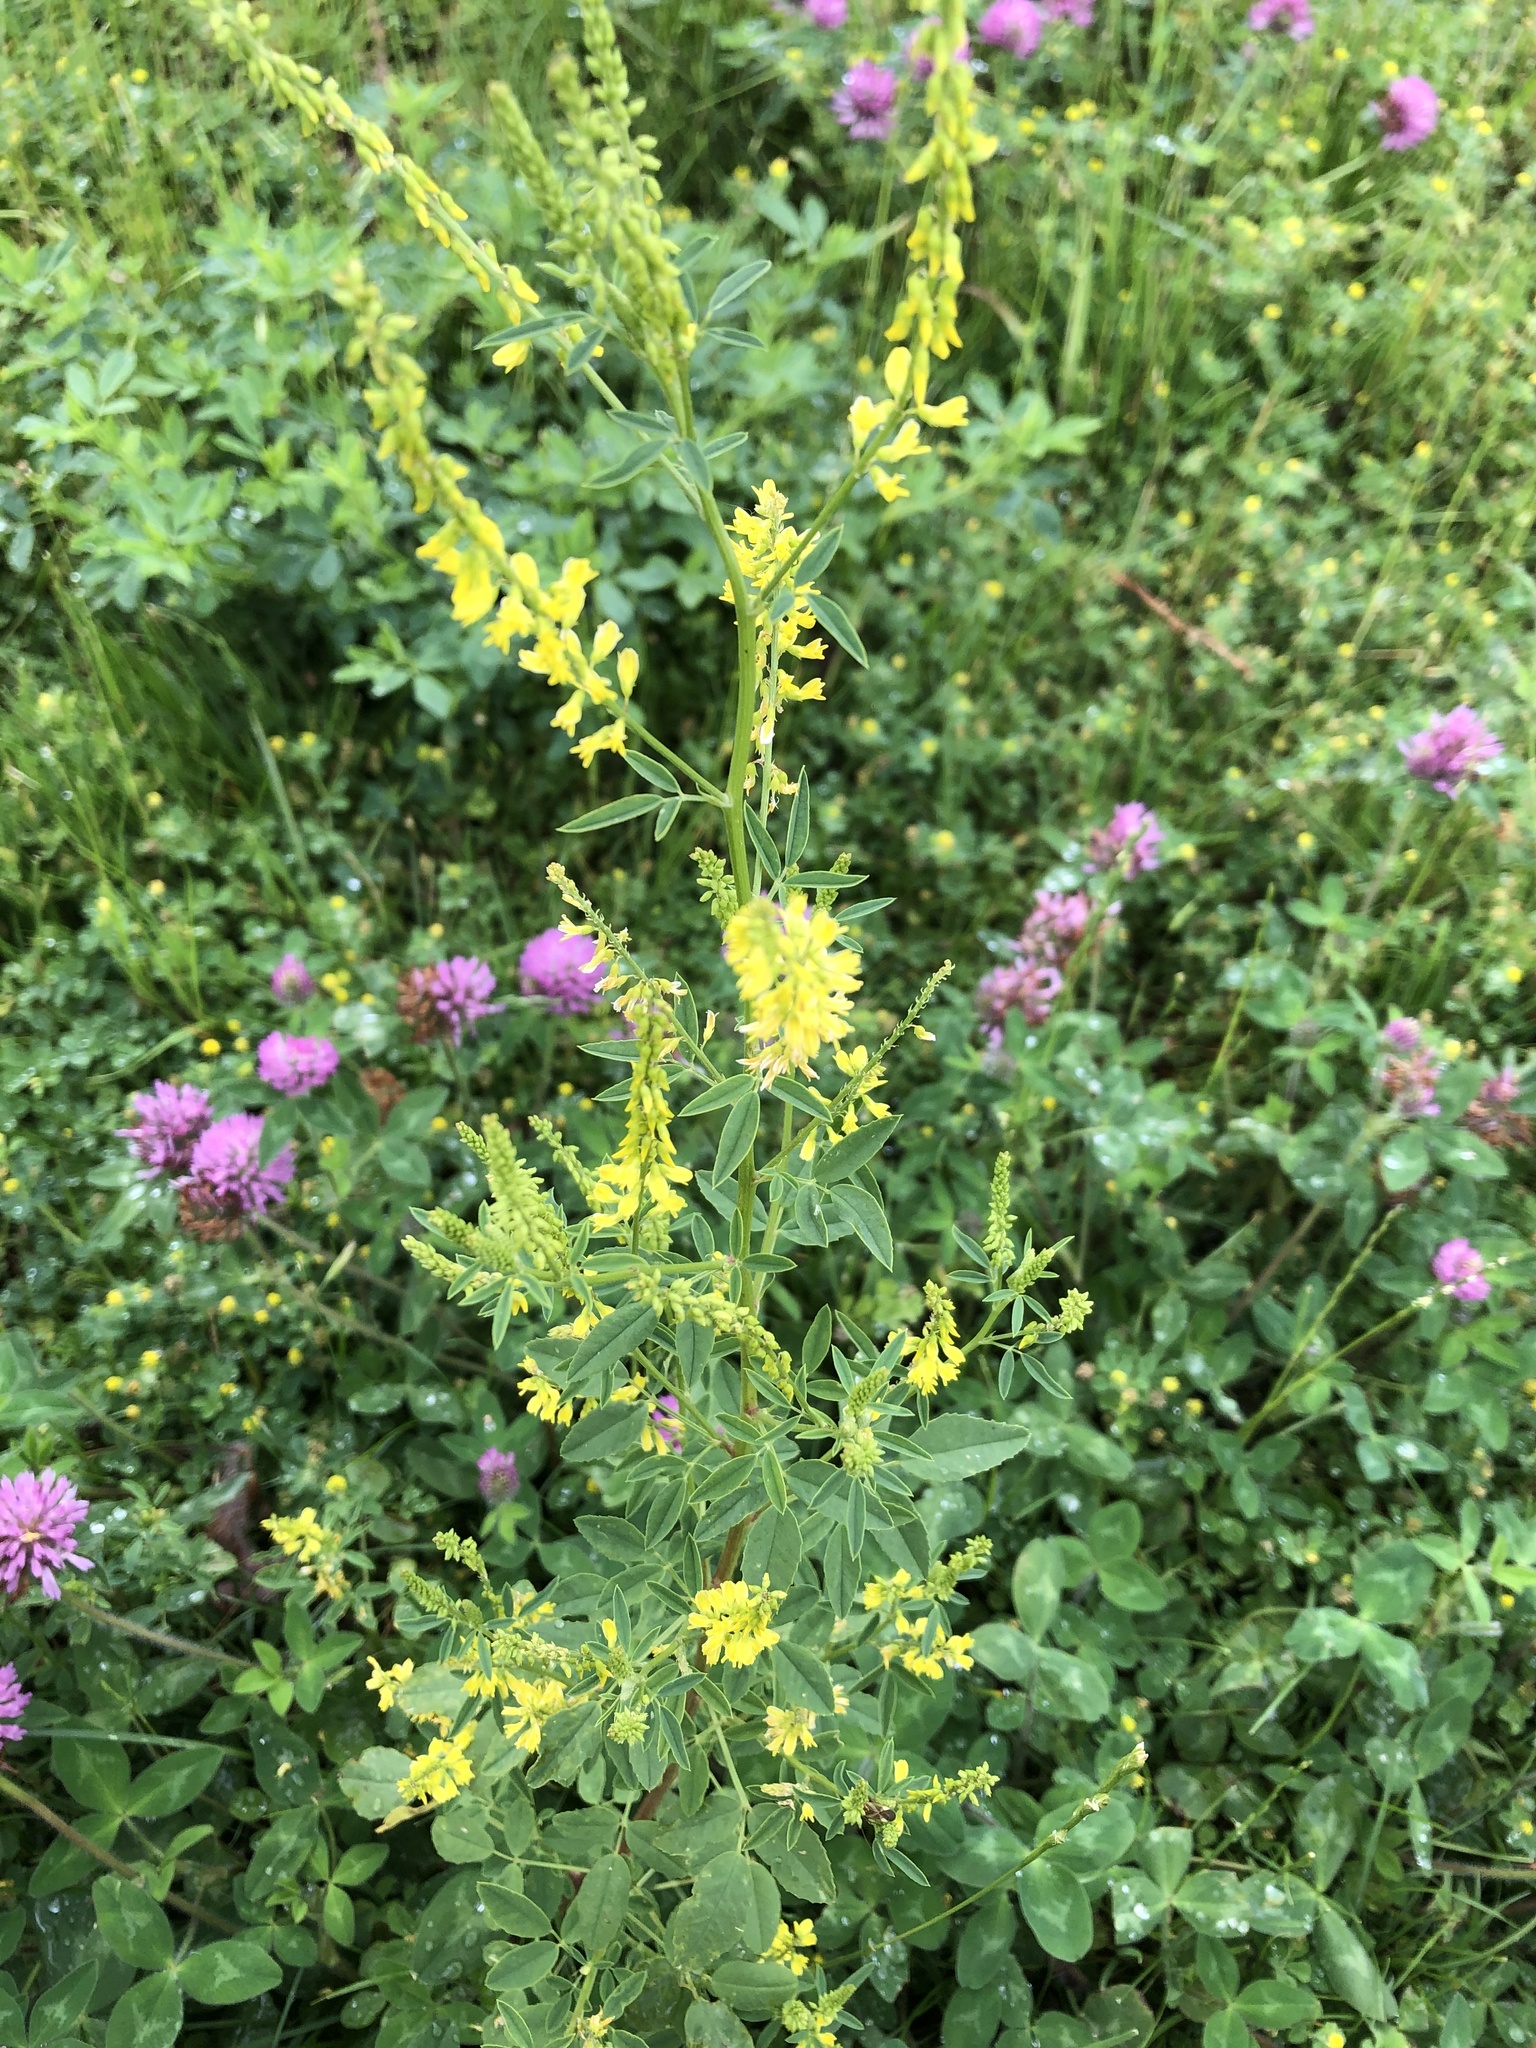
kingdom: Plantae
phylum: Tracheophyta
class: Magnoliopsida
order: Fabales
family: Fabaceae
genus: Melilotus
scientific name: Melilotus officinalis
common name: Sweetclover
